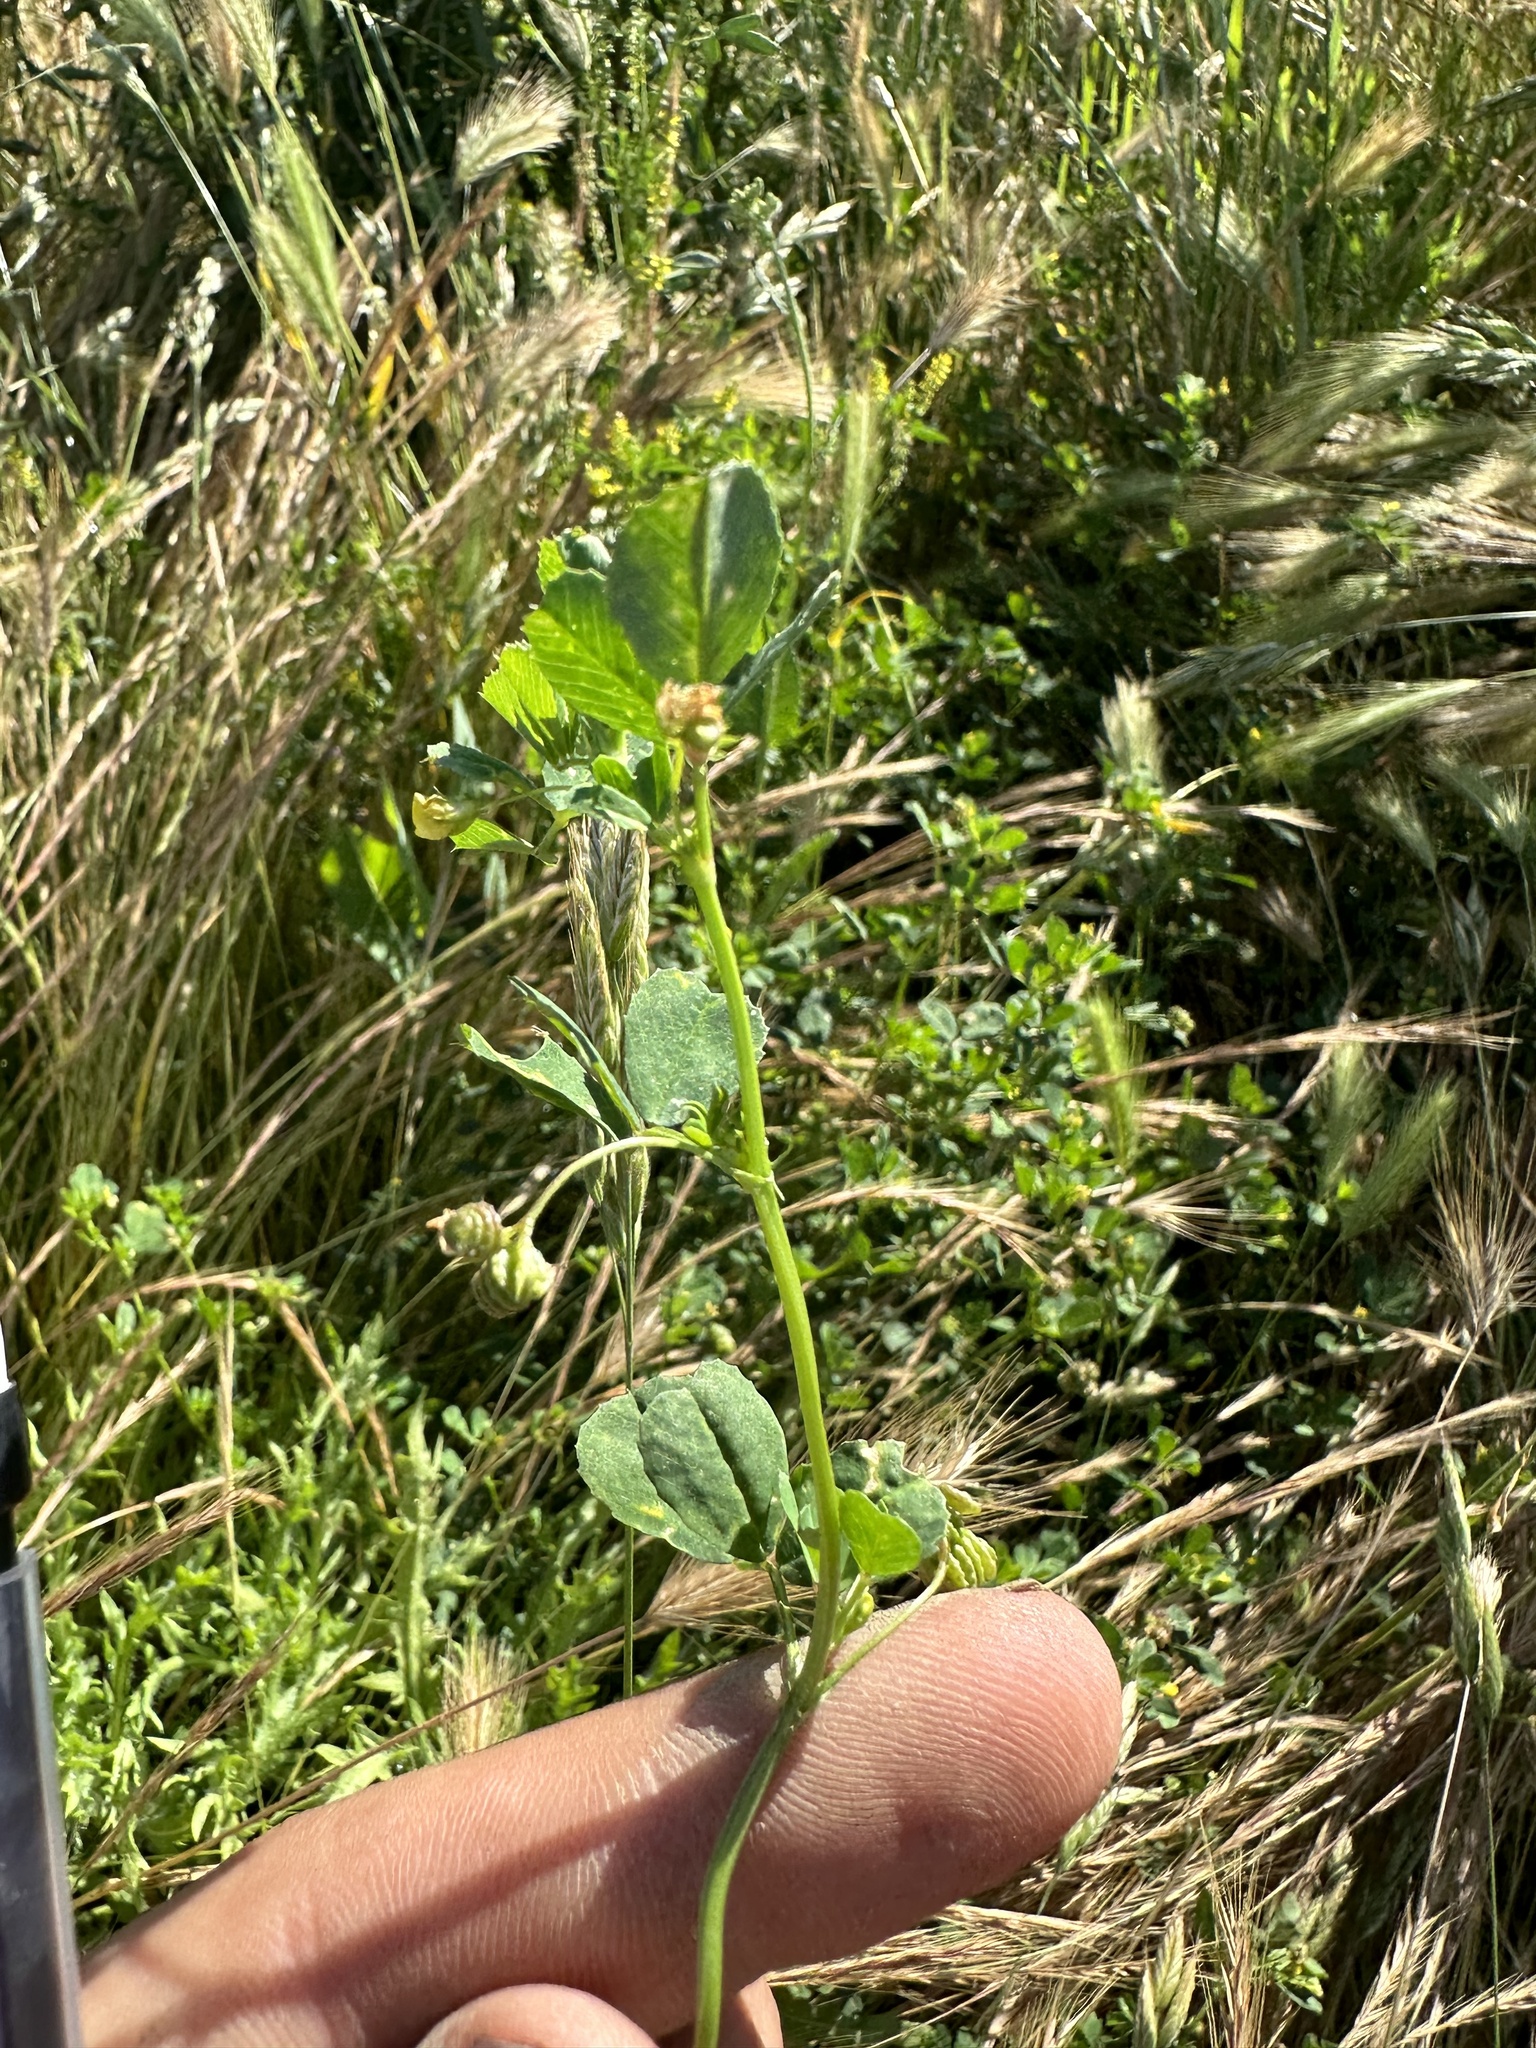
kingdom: Plantae
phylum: Tracheophyta
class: Magnoliopsida
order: Fabales
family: Fabaceae
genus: Medicago
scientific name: Medicago polymorpha
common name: Burclover
